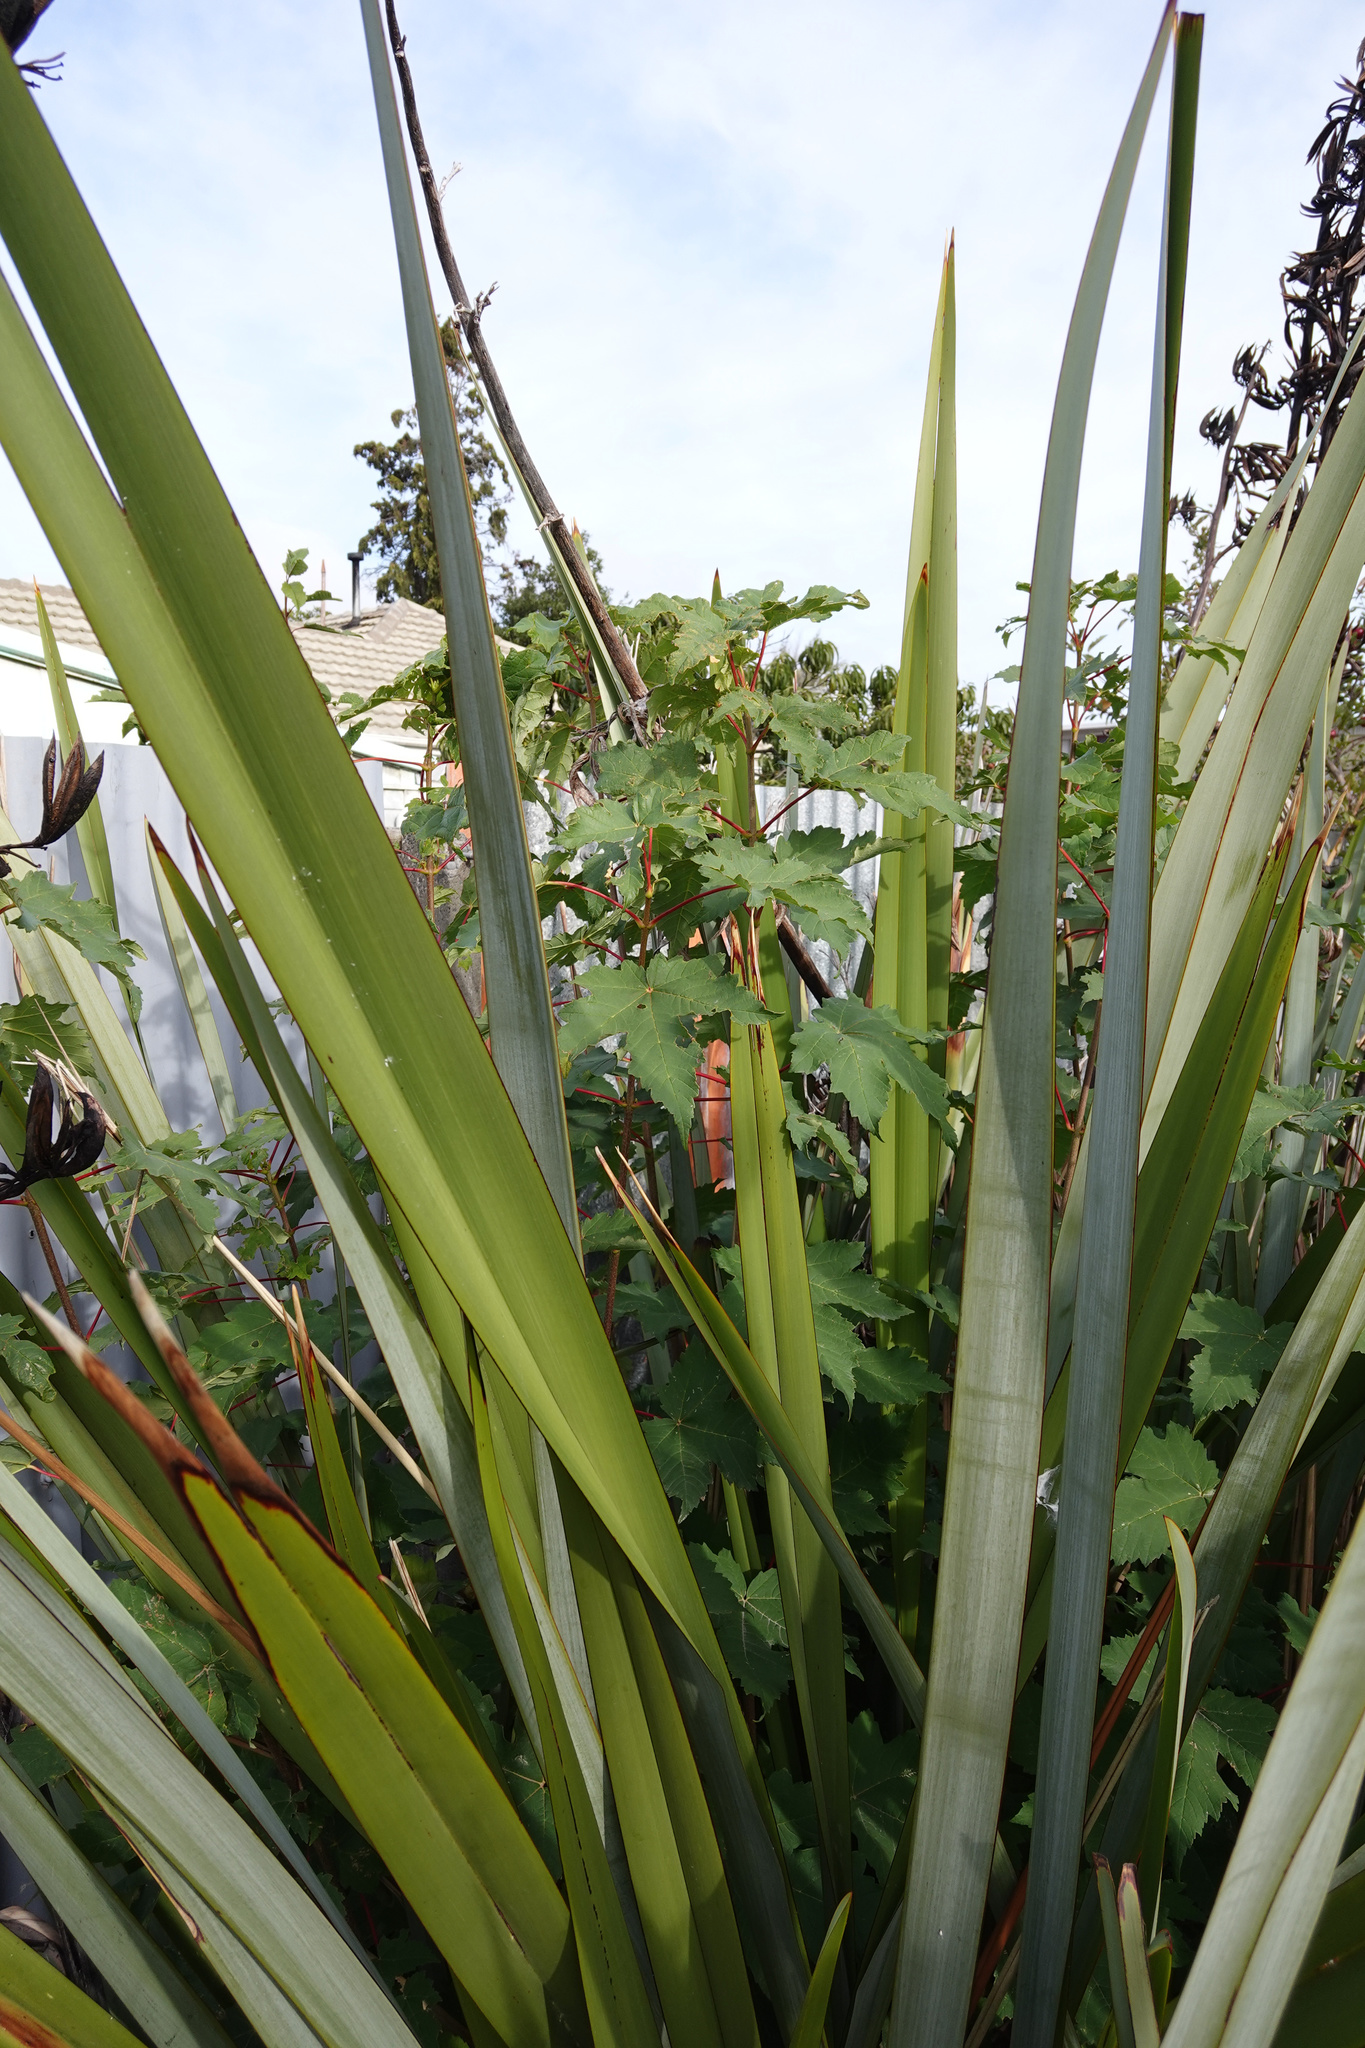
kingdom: Plantae
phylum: Tracheophyta
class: Magnoliopsida
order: Sapindales
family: Sapindaceae
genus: Acer
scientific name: Acer pseudoplatanus
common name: Sycamore
